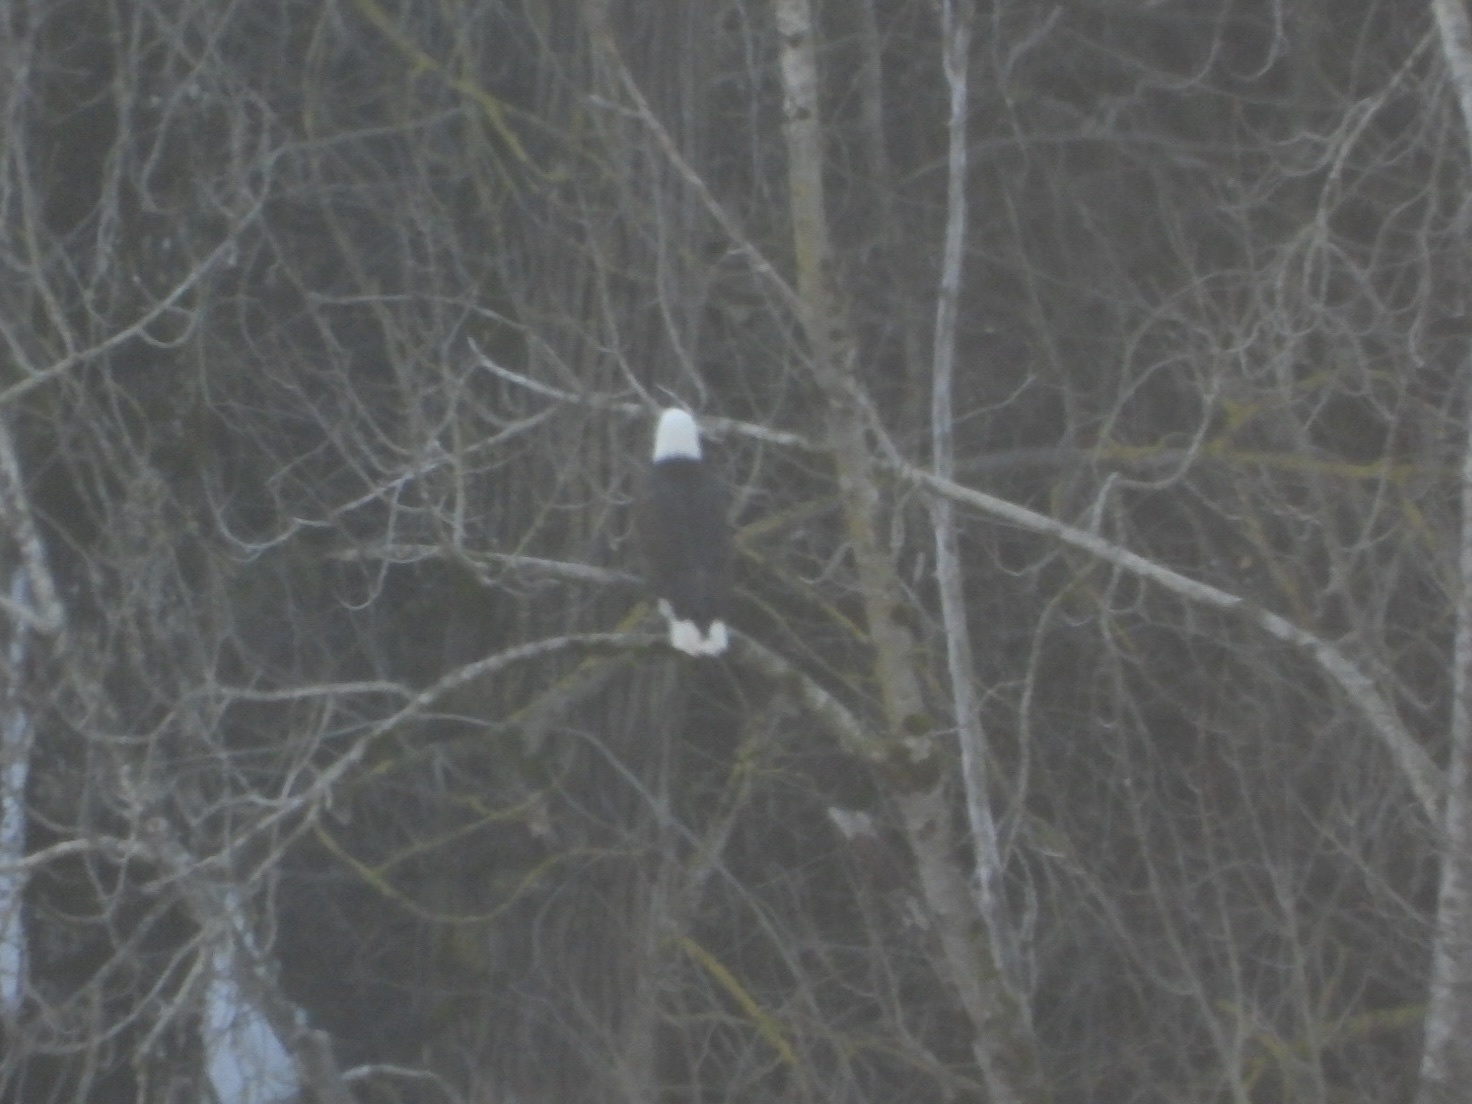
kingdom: Animalia
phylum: Chordata
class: Aves
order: Accipitriformes
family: Accipitridae
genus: Haliaeetus
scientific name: Haliaeetus leucocephalus
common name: Bald eagle
